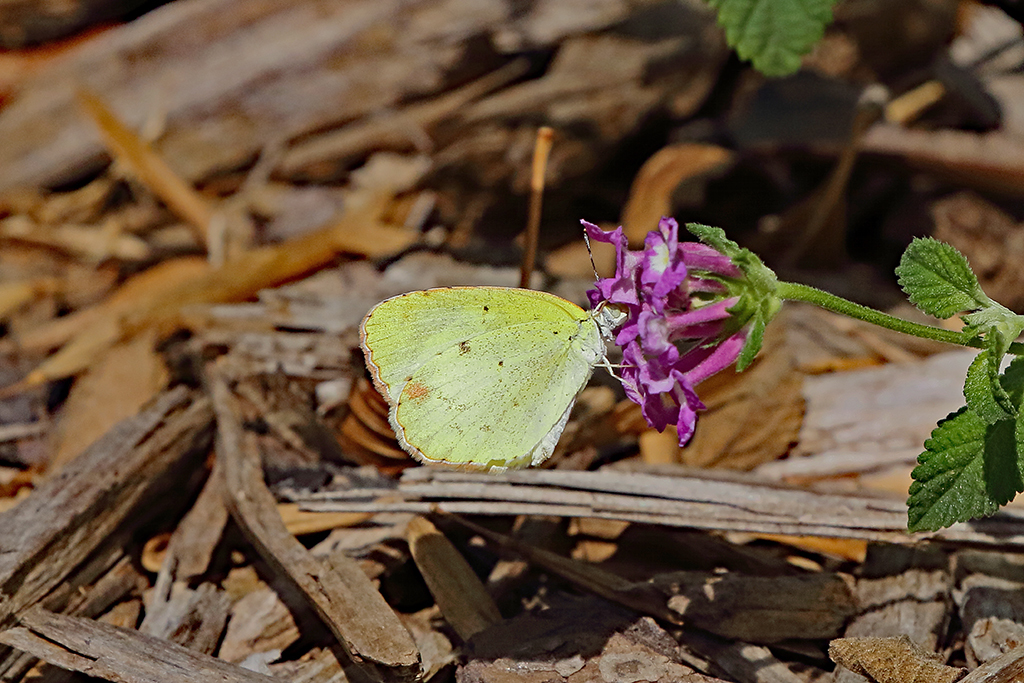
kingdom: Animalia
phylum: Arthropoda
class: Insecta
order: Lepidoptera
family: Pieridae
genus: Pyrisitia
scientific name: Pyrisitia lisa
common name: Little yellow
